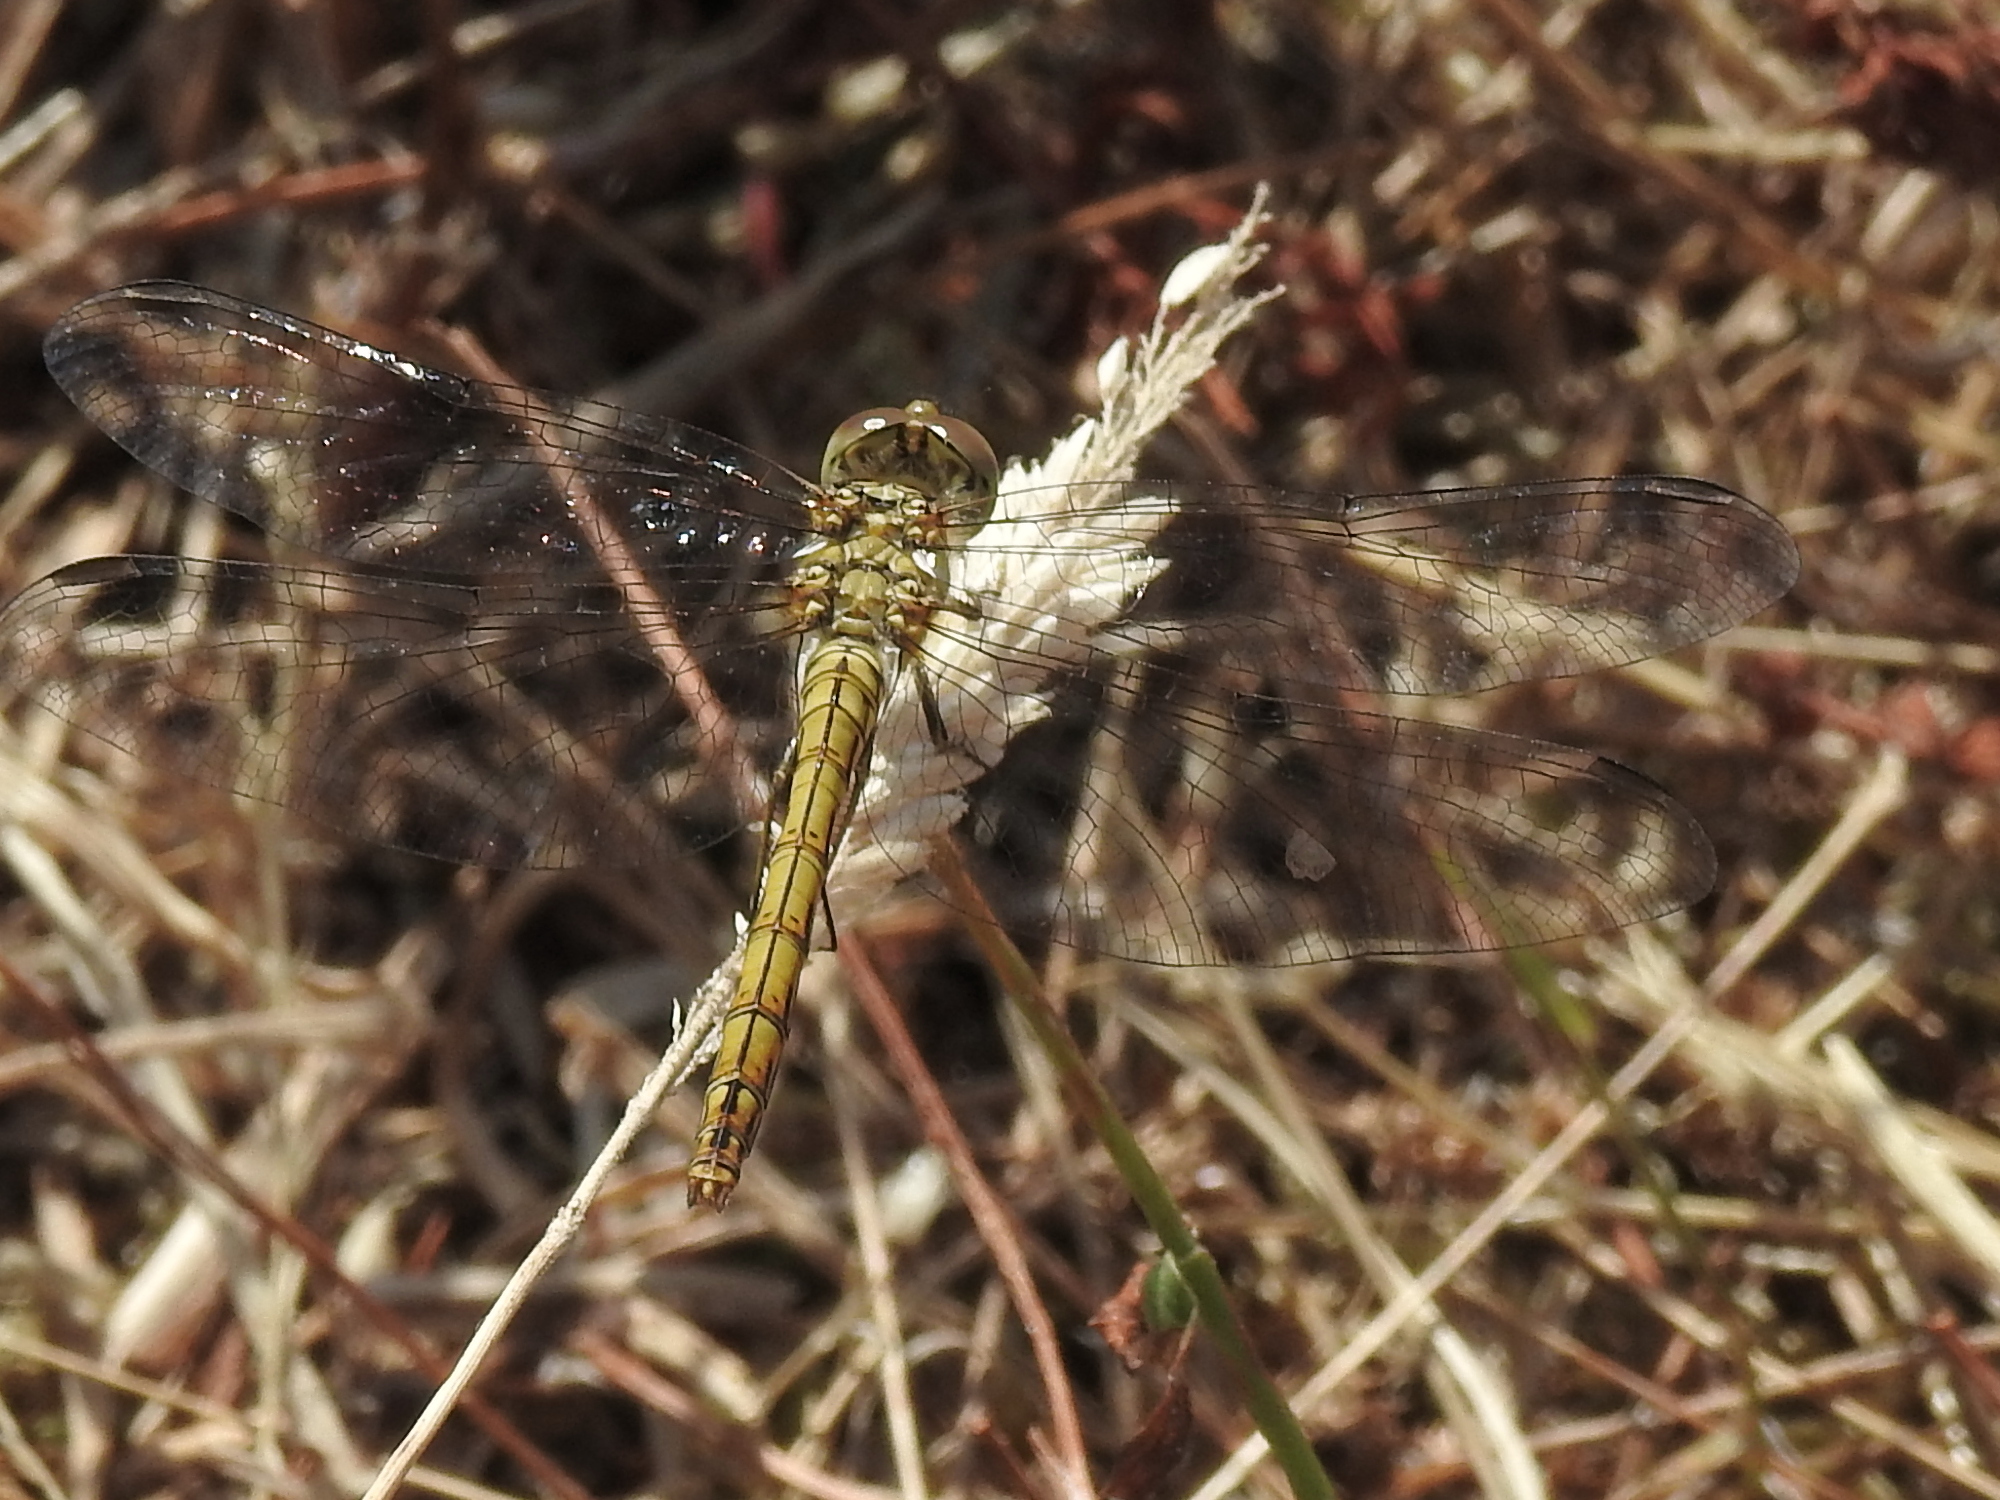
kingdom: Animalia
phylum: Arthropoda
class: Insecta
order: Odonata
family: Libellulidae
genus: Sympetrum
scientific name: Sympetrum vulgatum
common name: Vagrant darter
